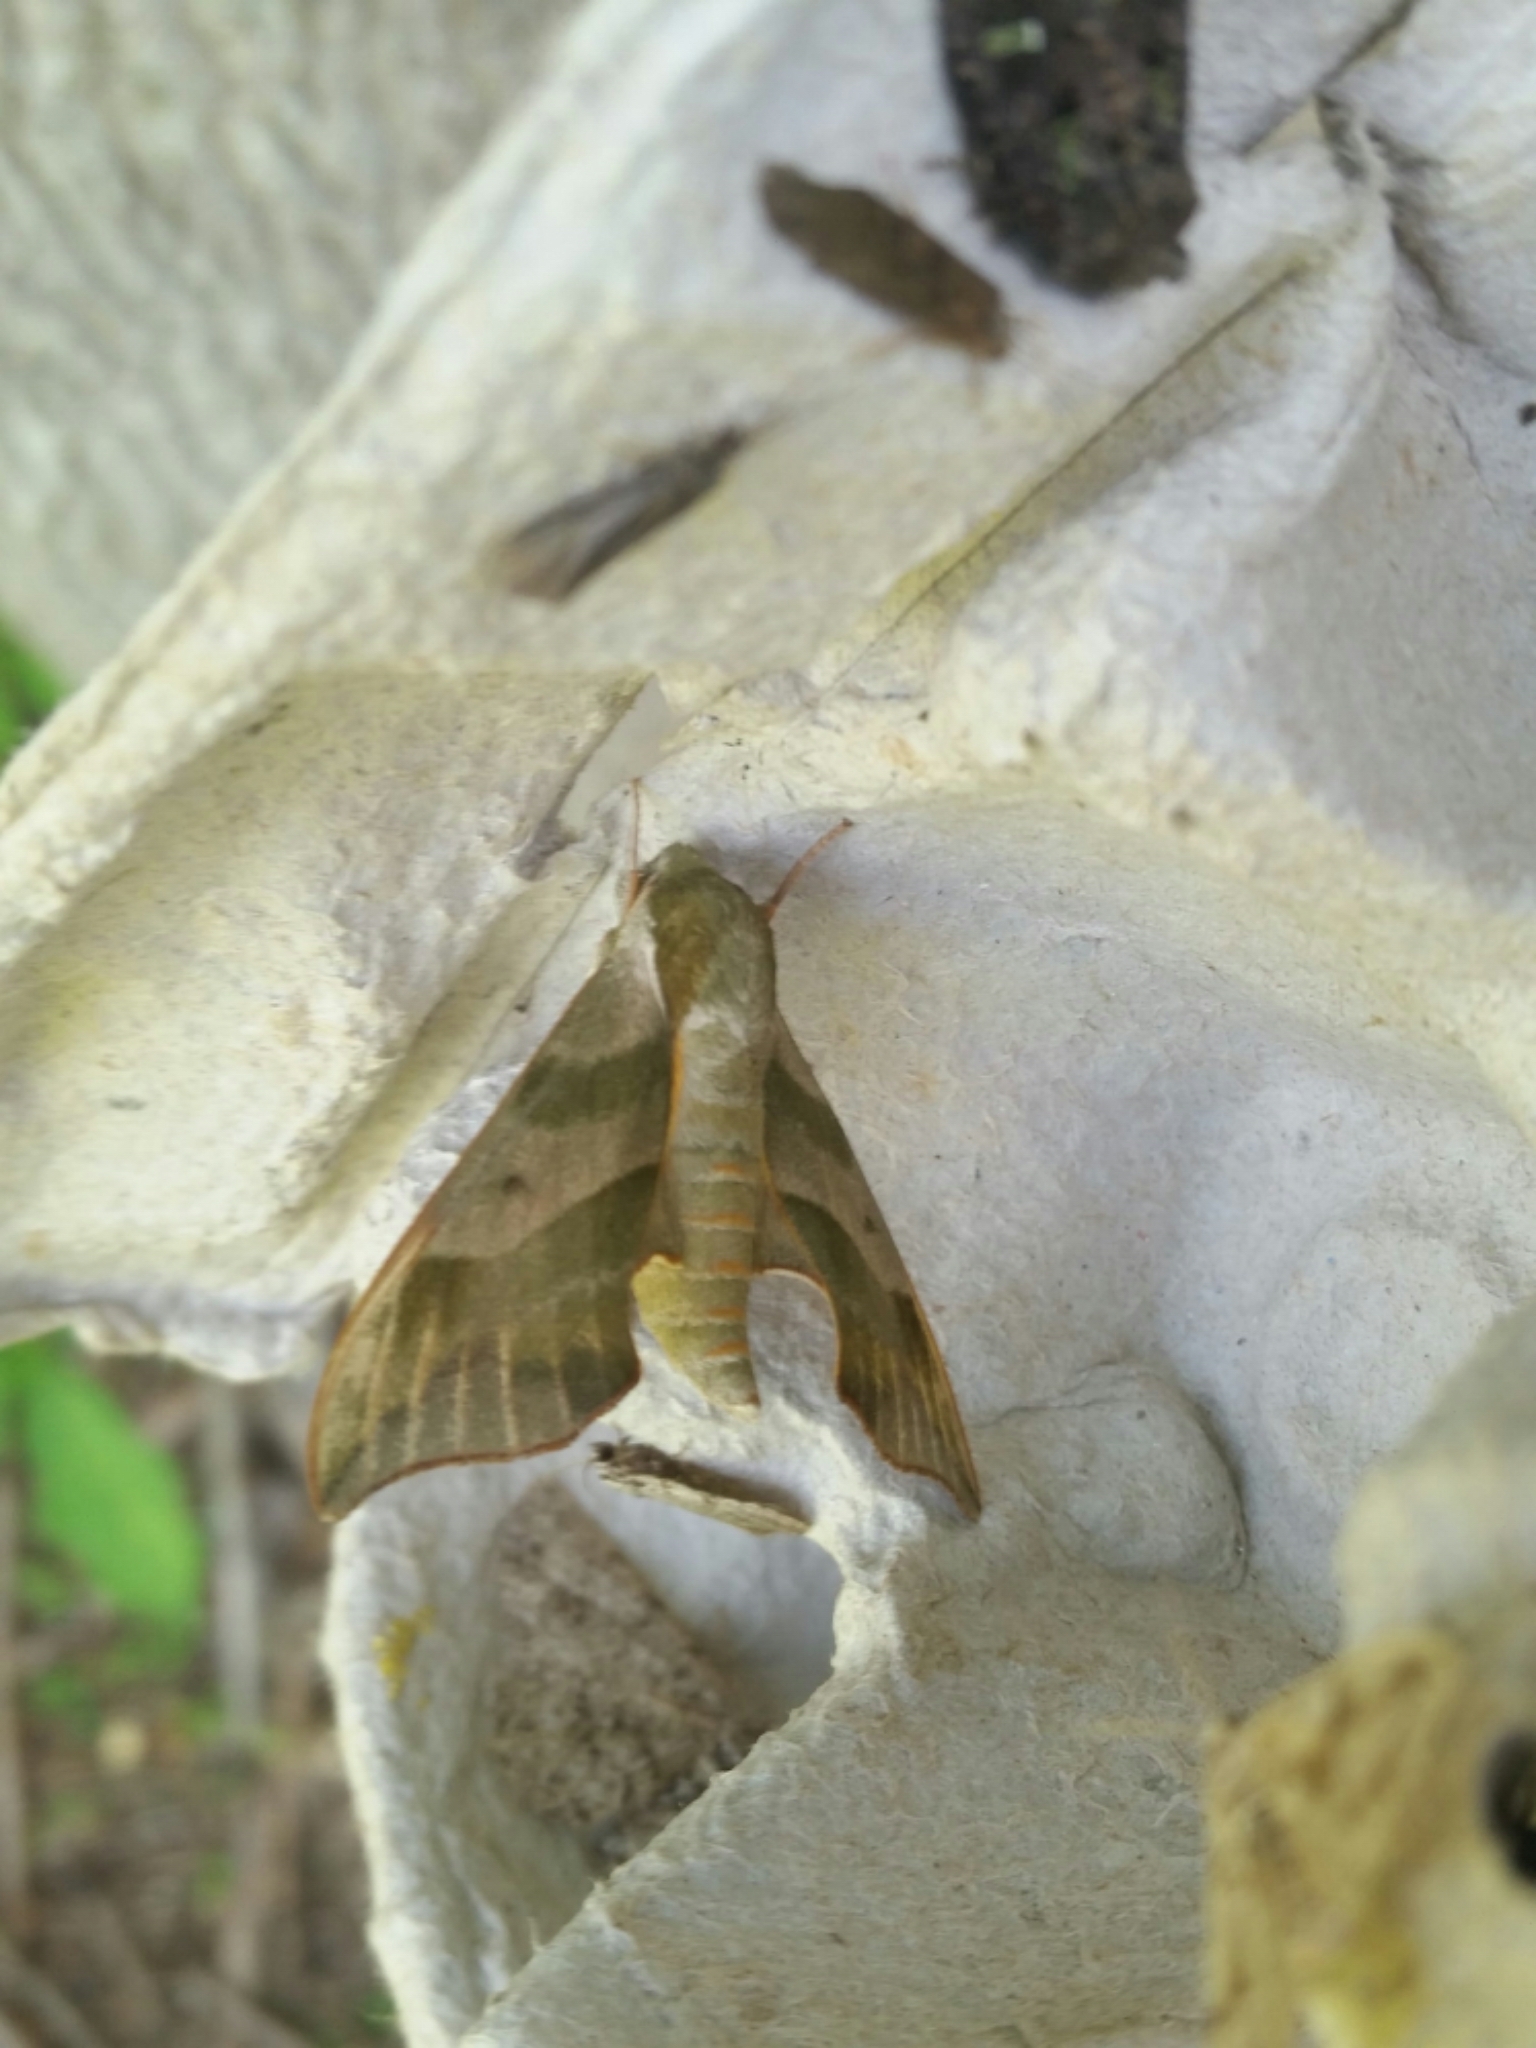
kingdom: Animalia
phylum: Arthropoda
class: Insecta
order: Lepidoptera
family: Sphingidae
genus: Darapsa
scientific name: Darapsa myron
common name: Hog sphinx
